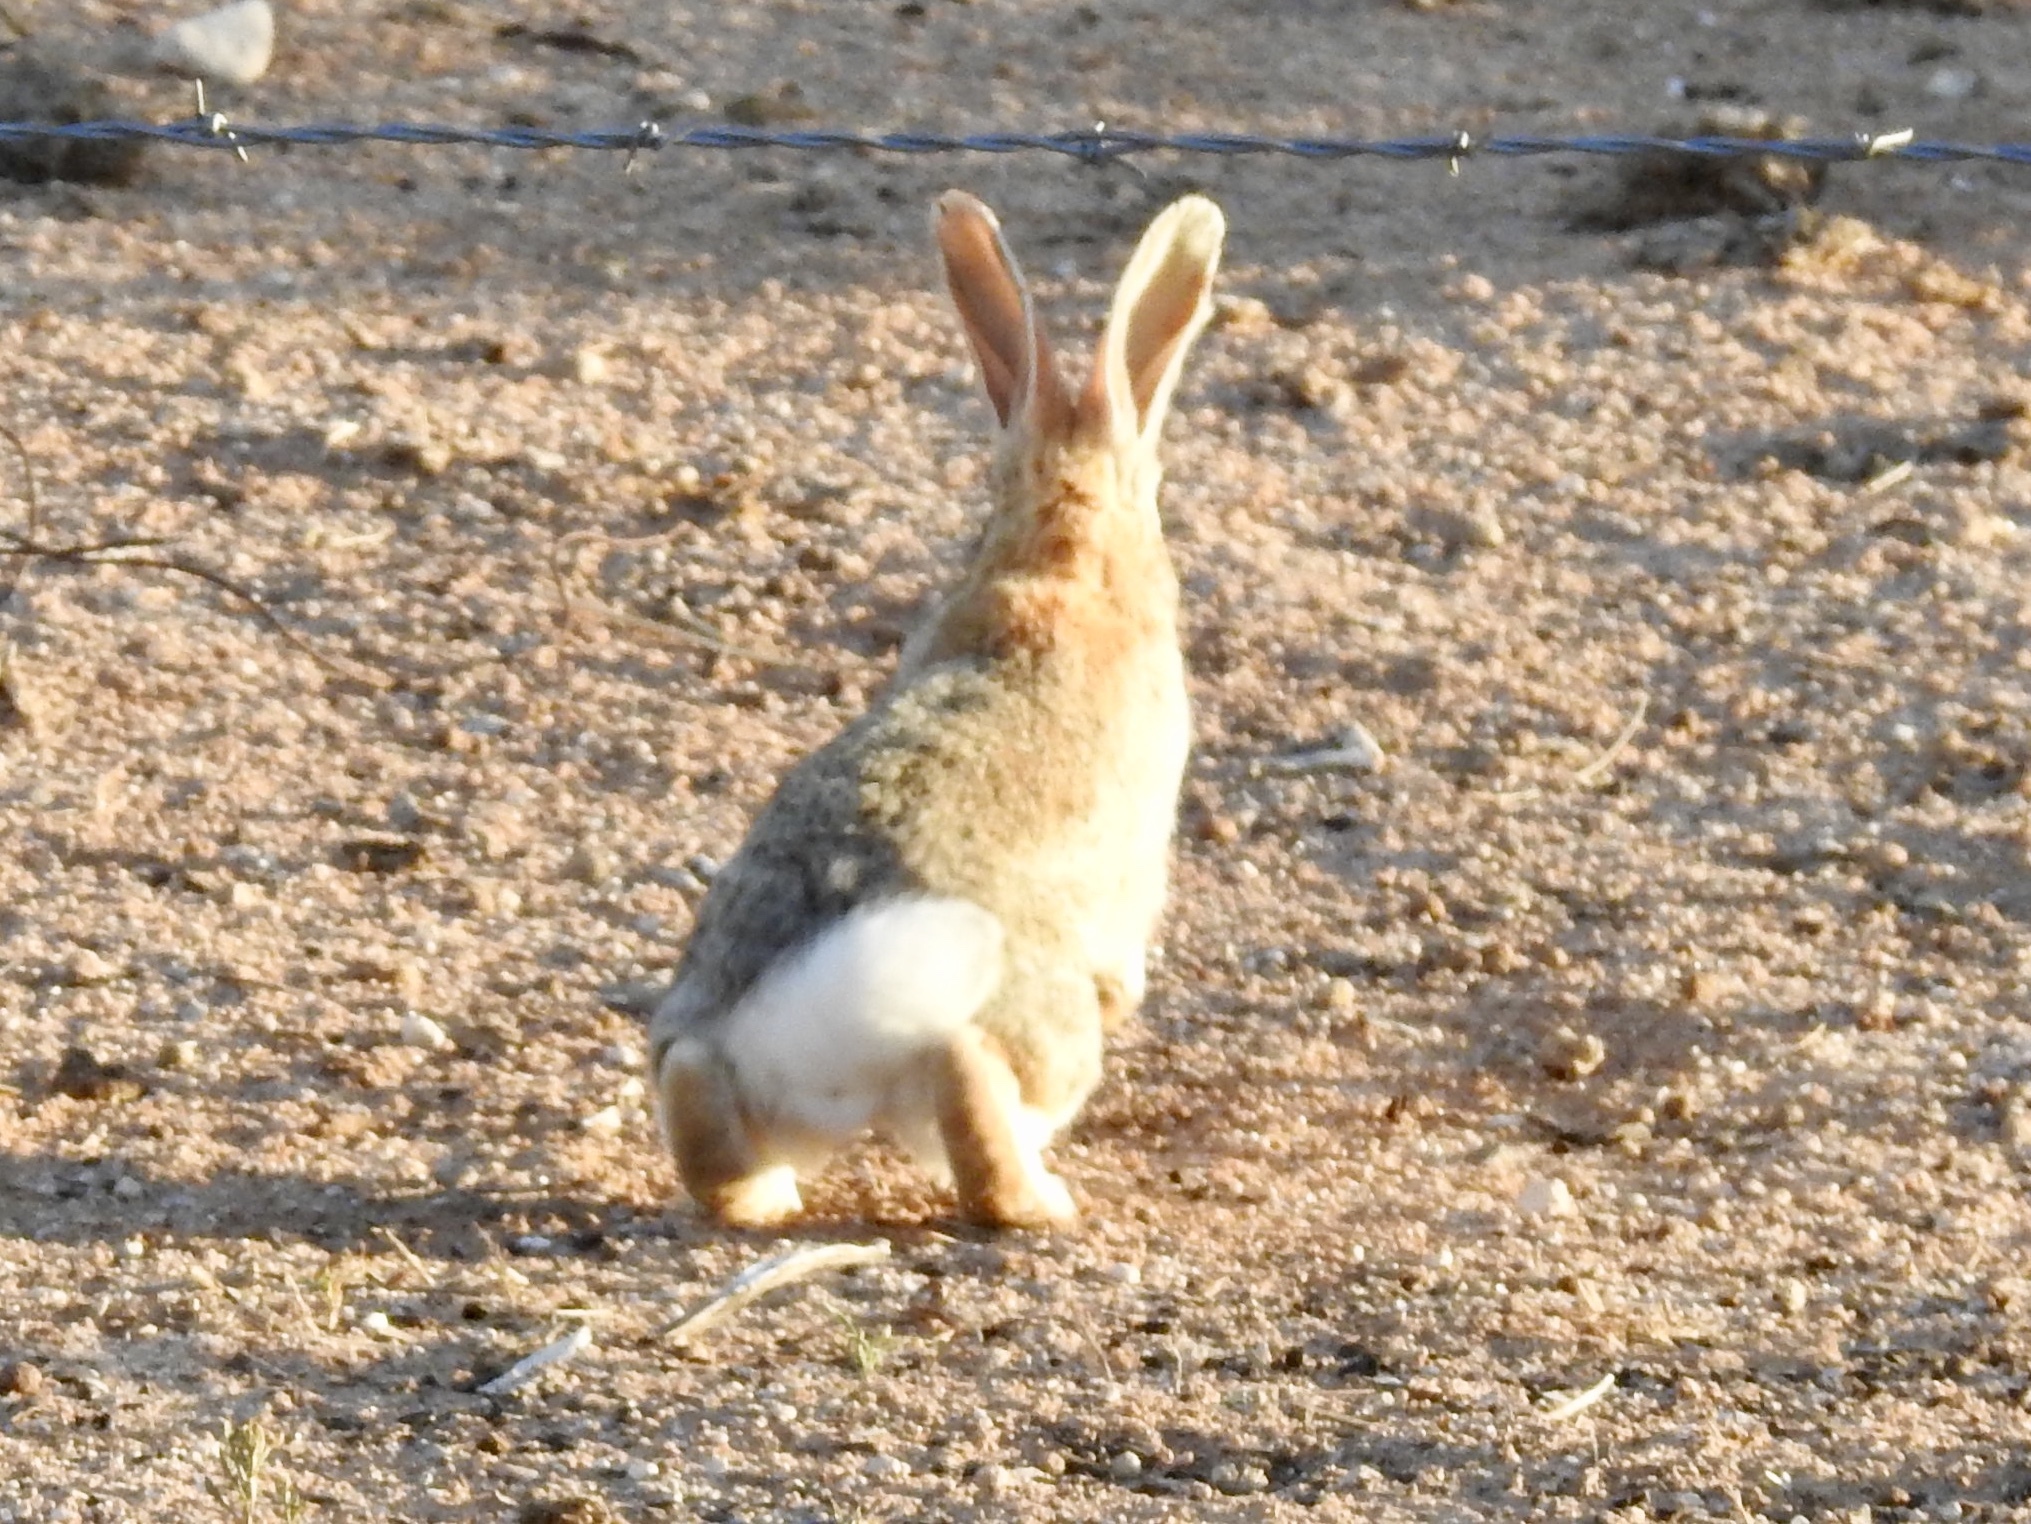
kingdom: Animalia
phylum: Chordata
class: Mammalia
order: Lagomorpha
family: Leporidae
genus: Sylvilagus
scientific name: Sylvilagus audubonii
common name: Desert cottontail
